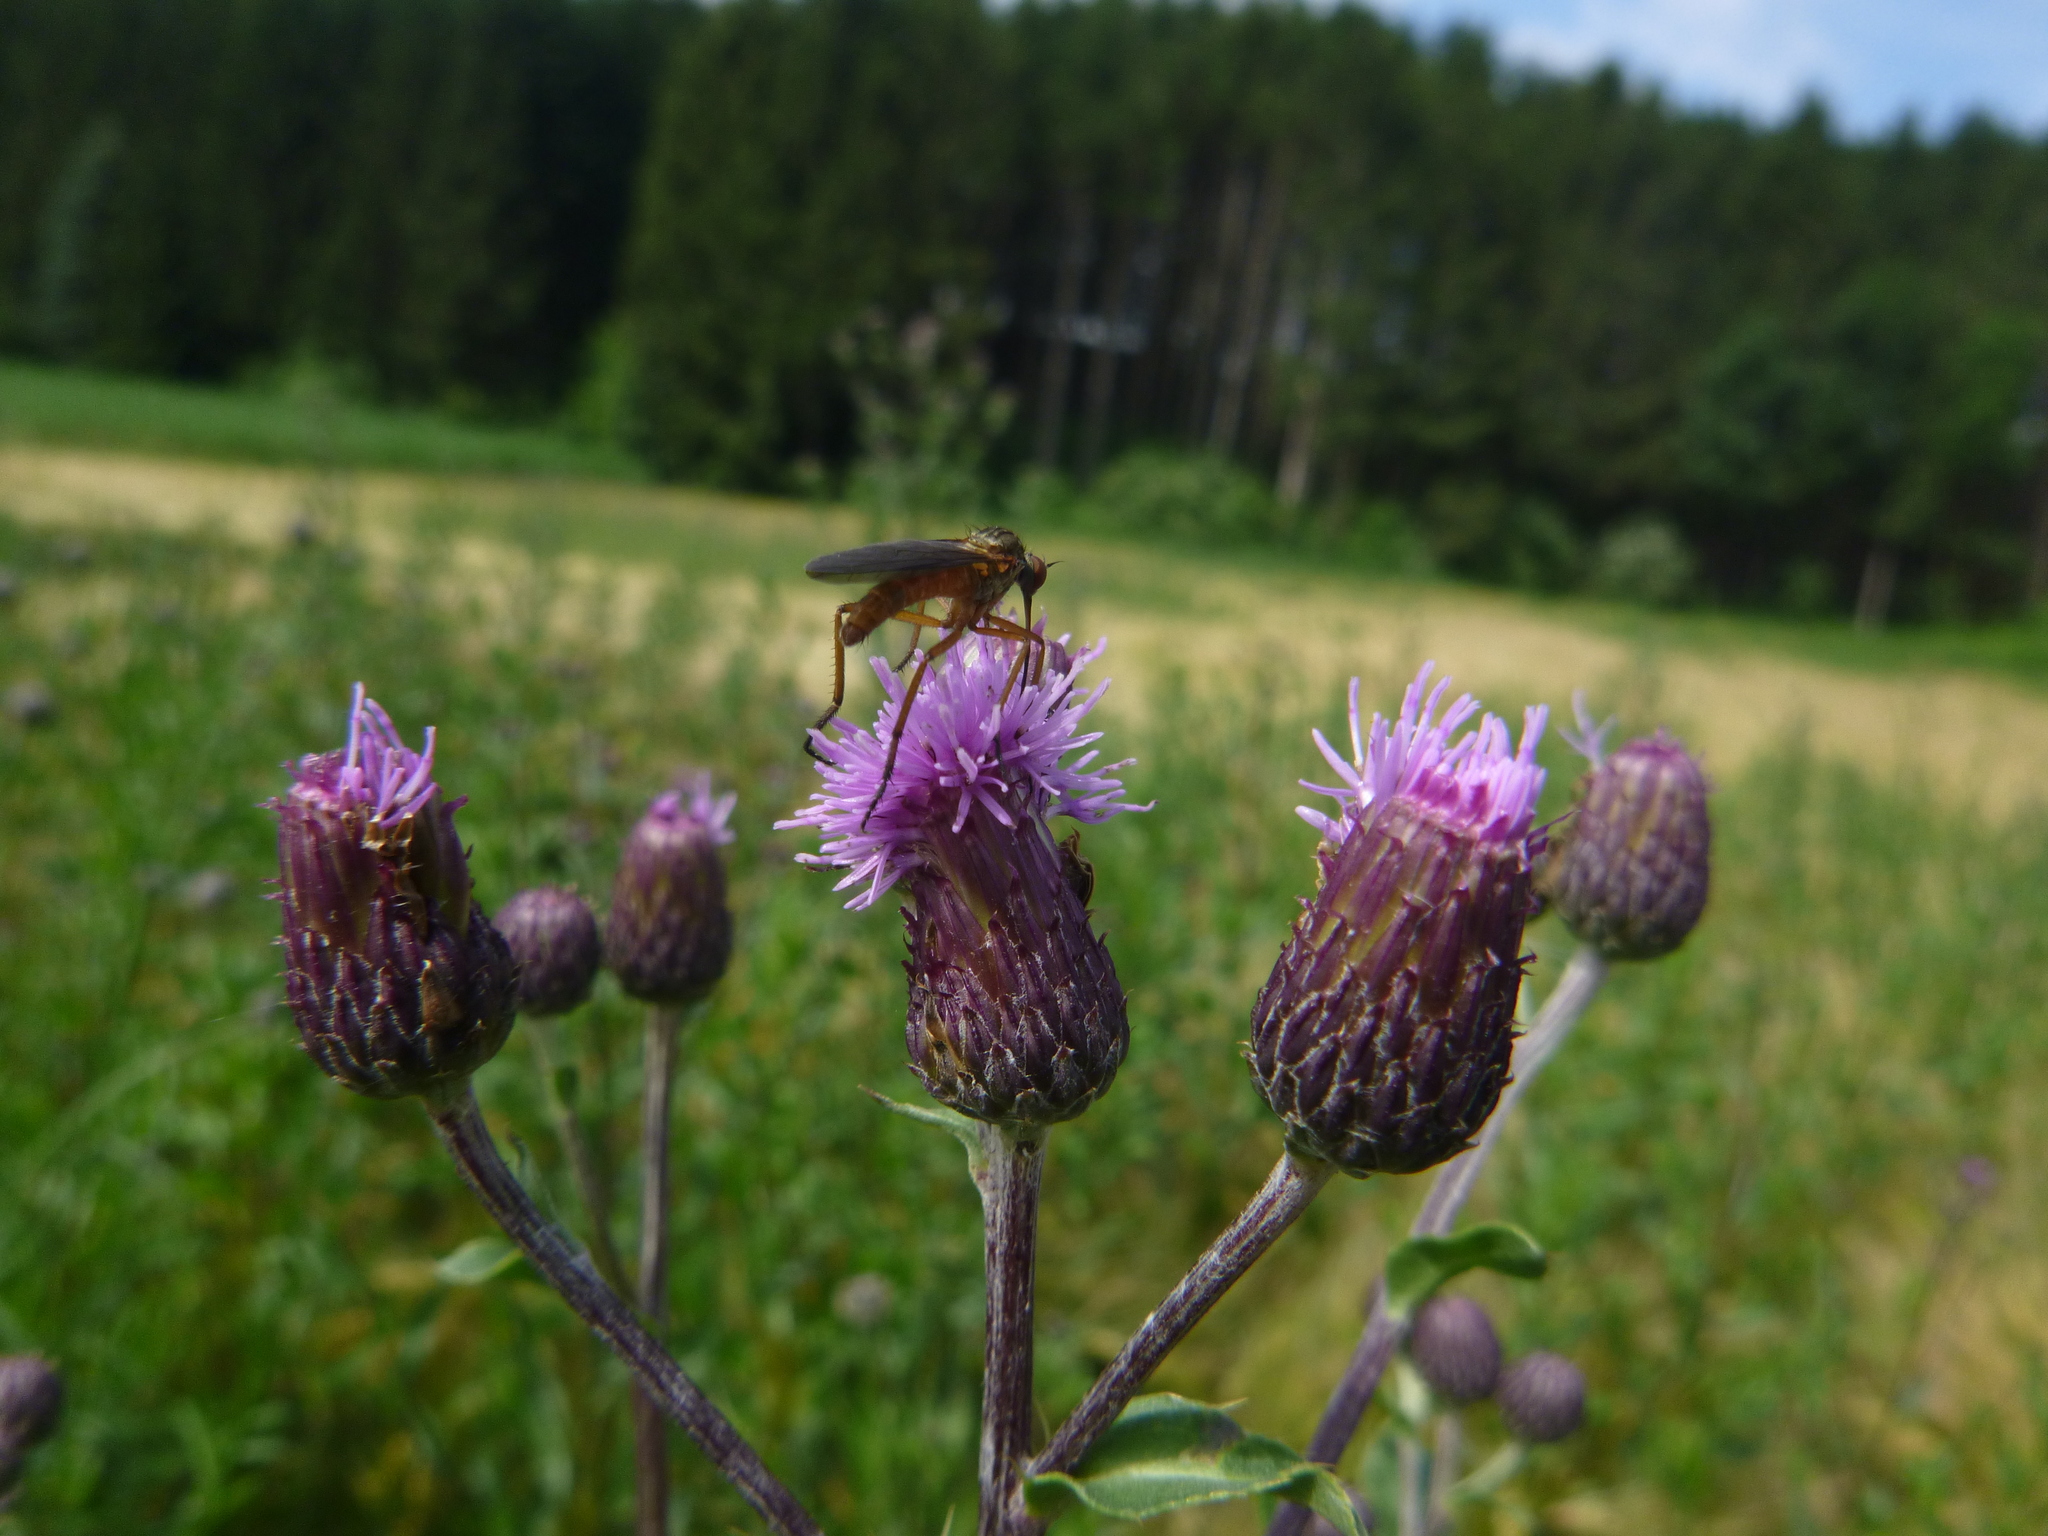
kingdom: Plantae
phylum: Tracheophyta
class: Magnoliopsida
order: Asterales
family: Asteraceae
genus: Cirsium
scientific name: Cirsium arvense
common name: Creeping thistle
